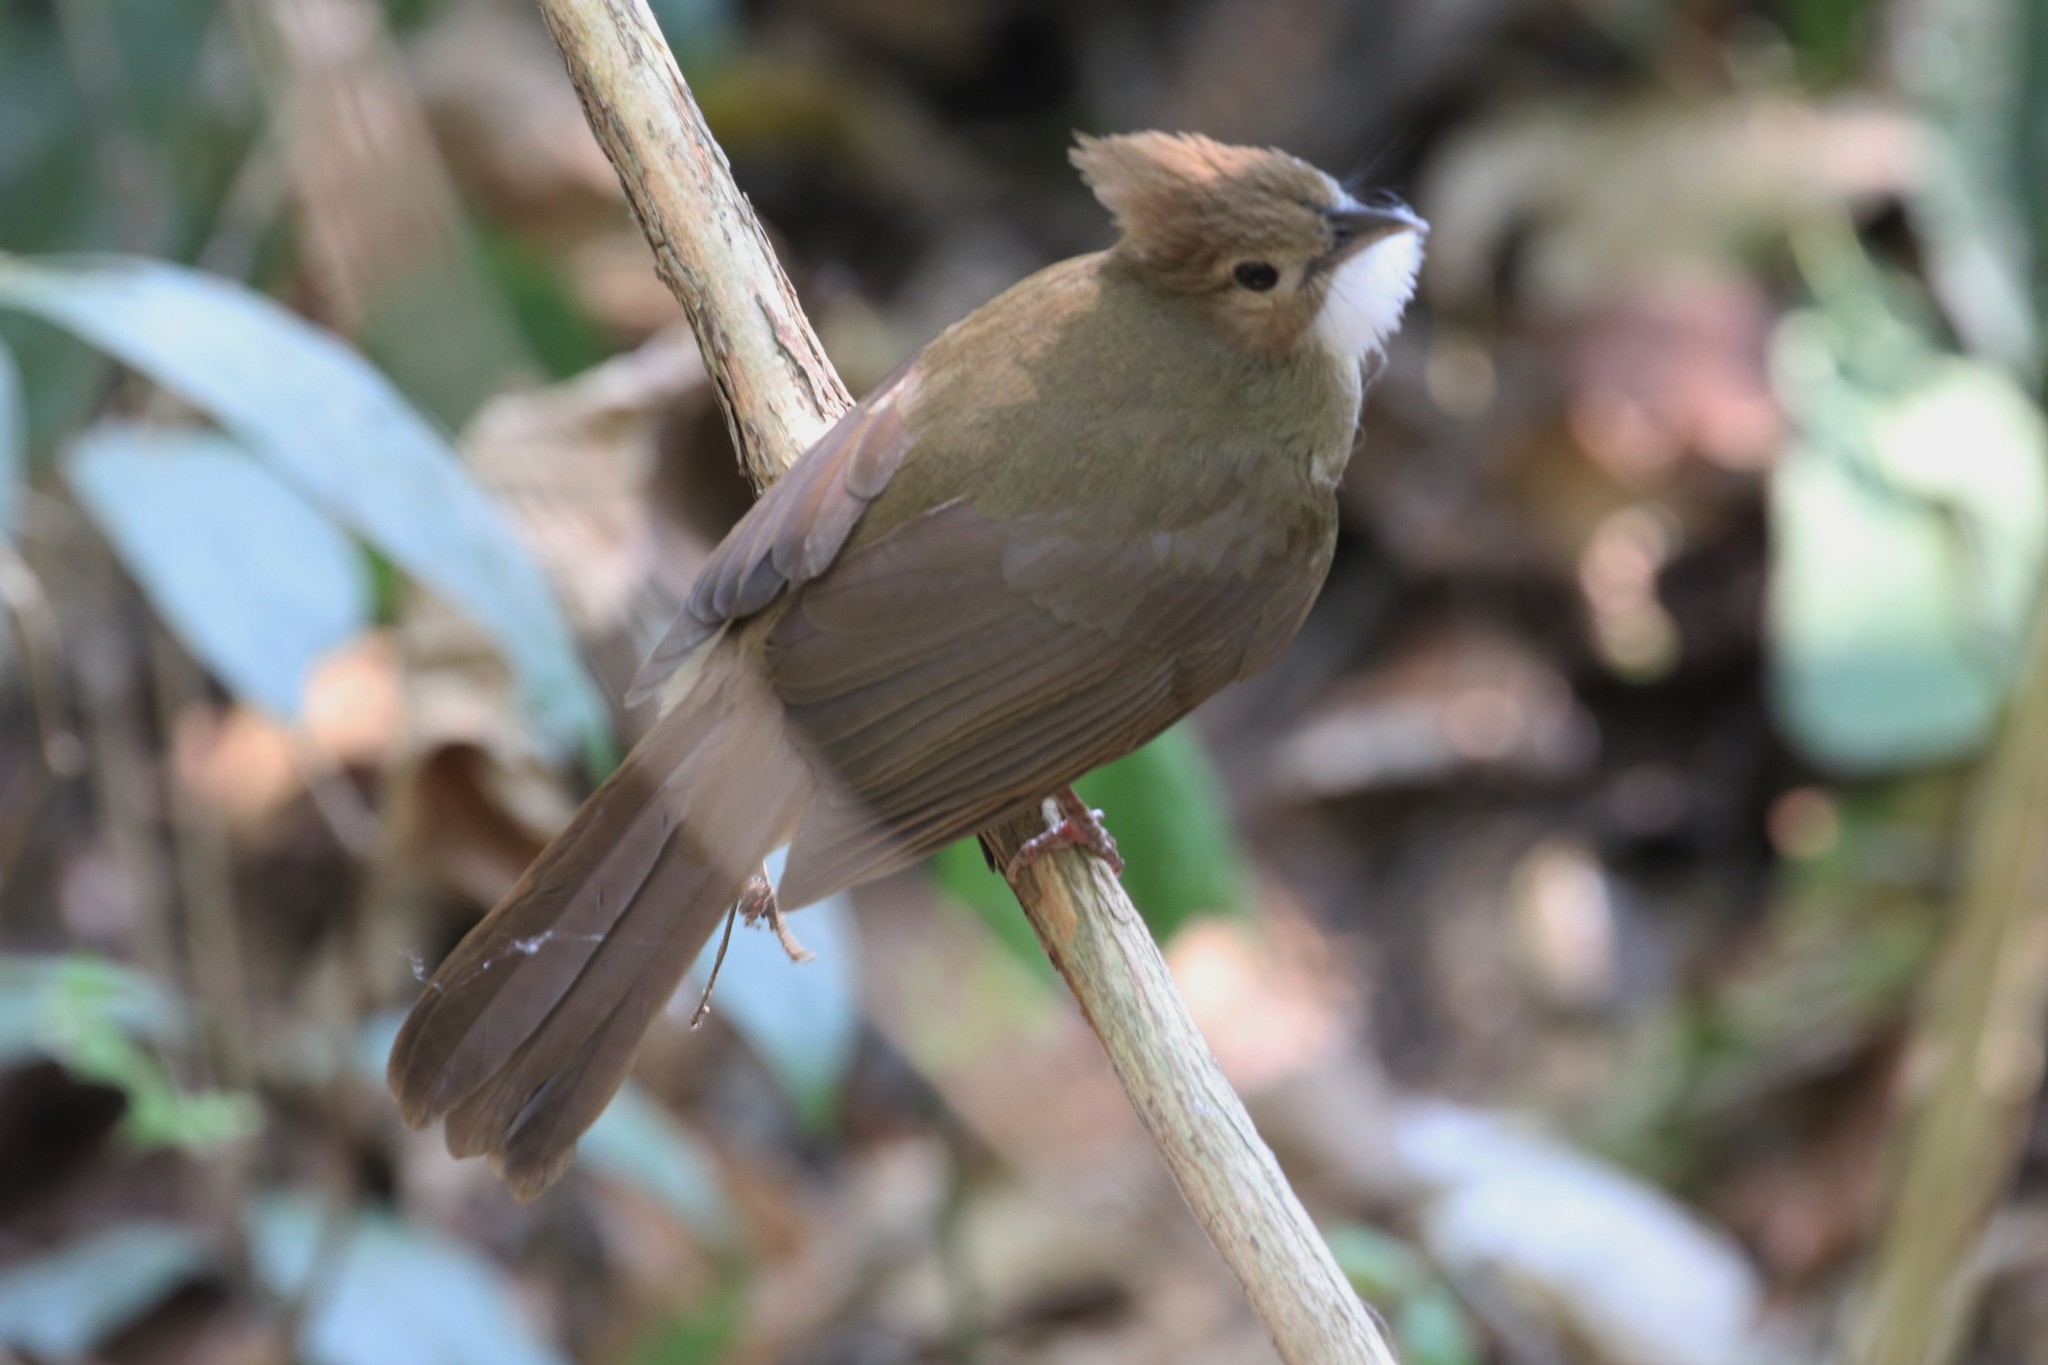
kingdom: Animalia
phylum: Chordata
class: Aves
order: Passeriformes
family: Pycnonotidae
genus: Alophoixus
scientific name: Alophoixus ochraceus
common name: Ochraceous bulbul
